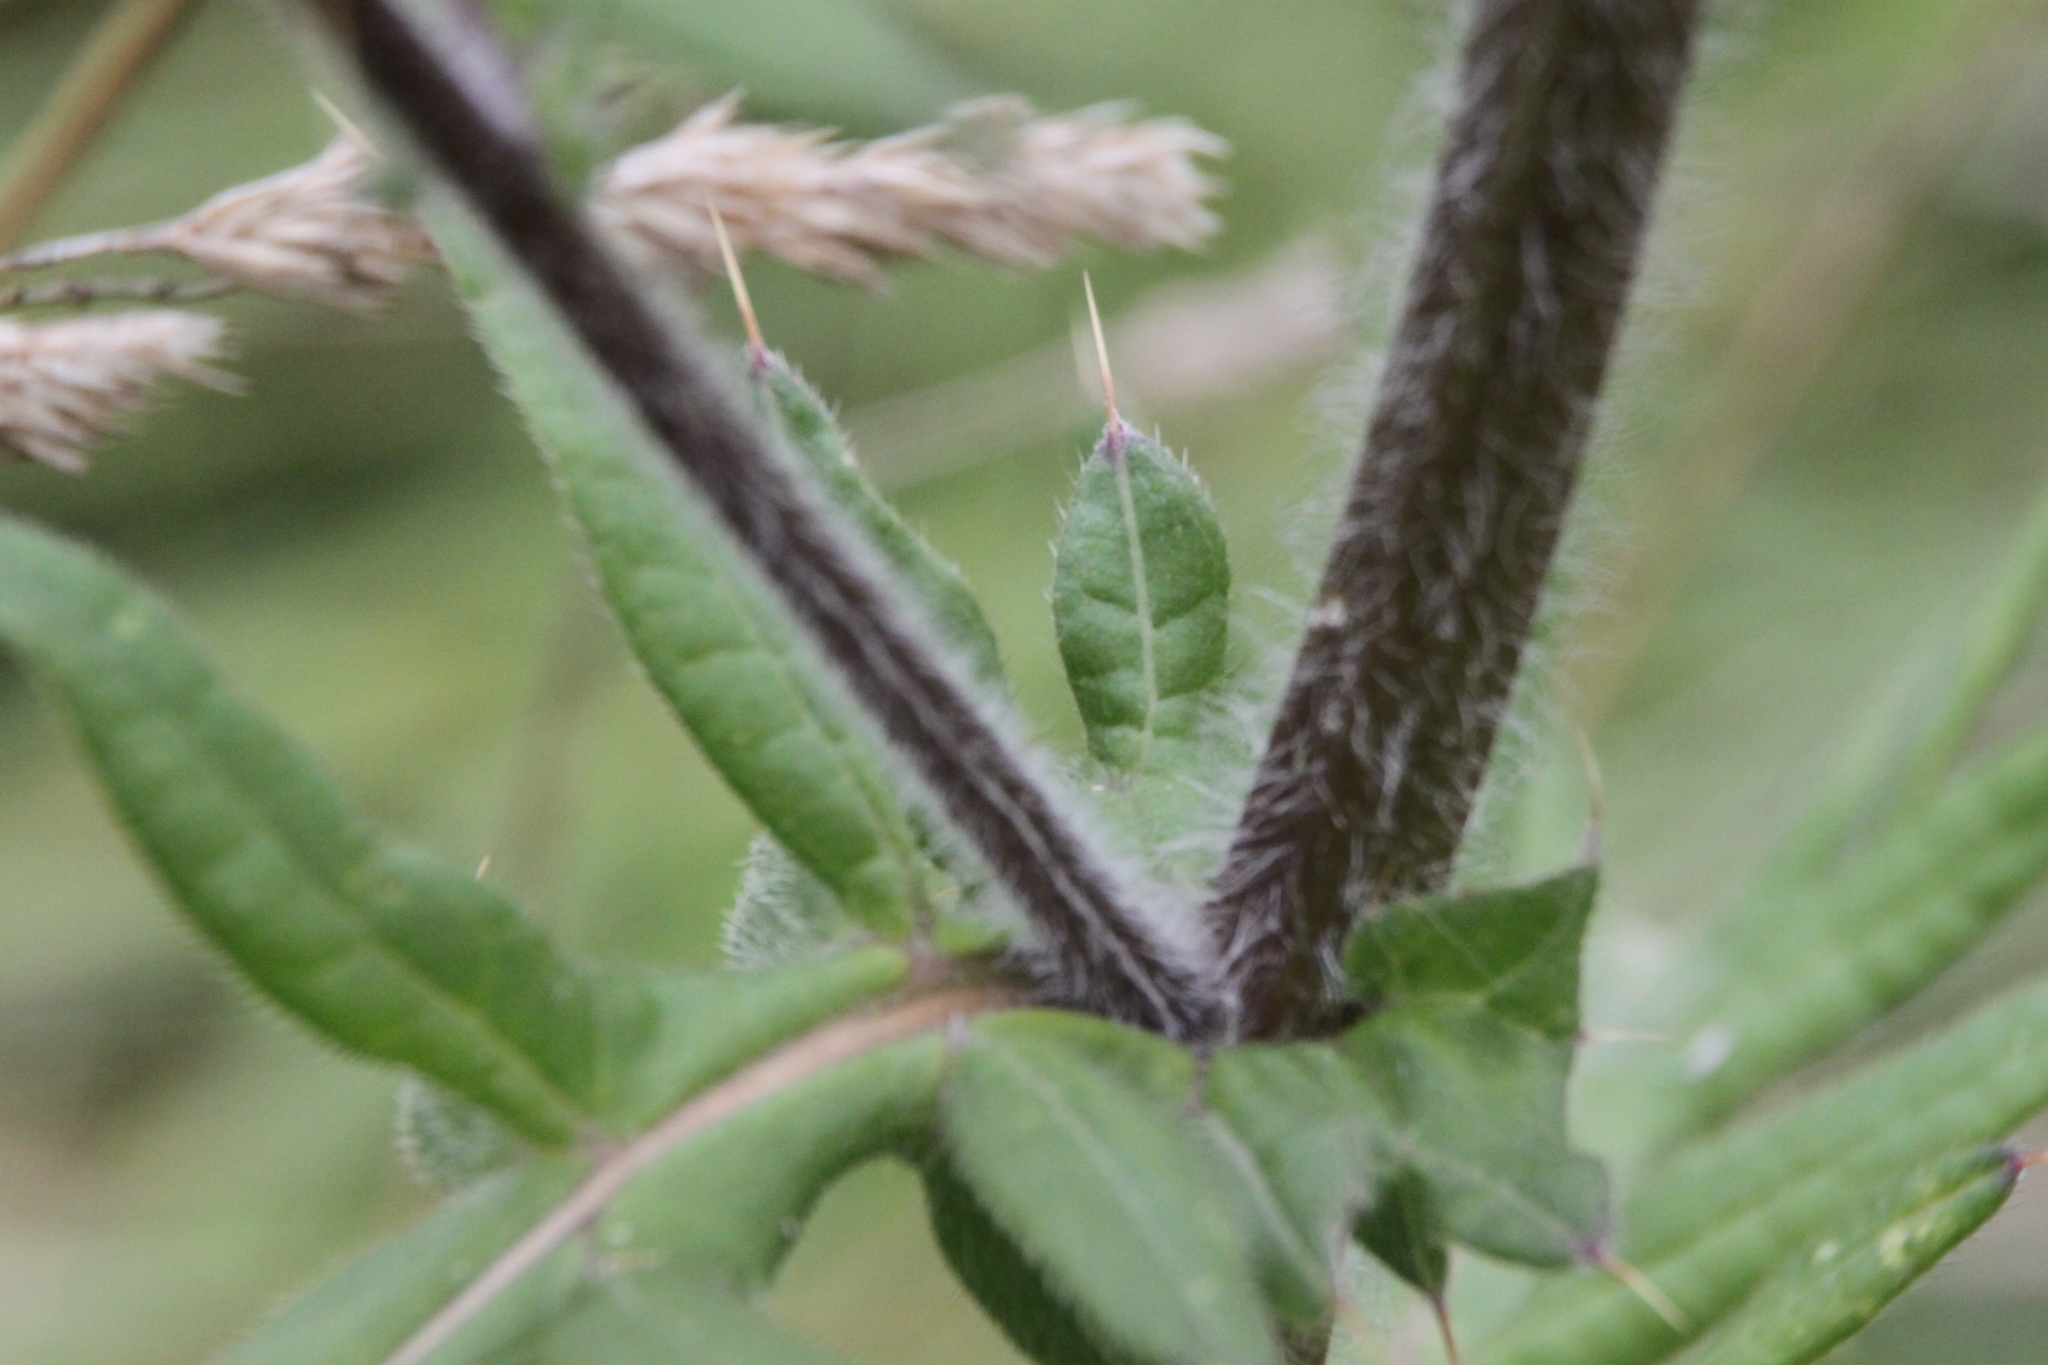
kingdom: Plantae
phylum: Tracheophyta
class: Magnoliopsida
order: Asterales
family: Asteraceae
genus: Lophiolepis
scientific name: Lophiolepis decussata
